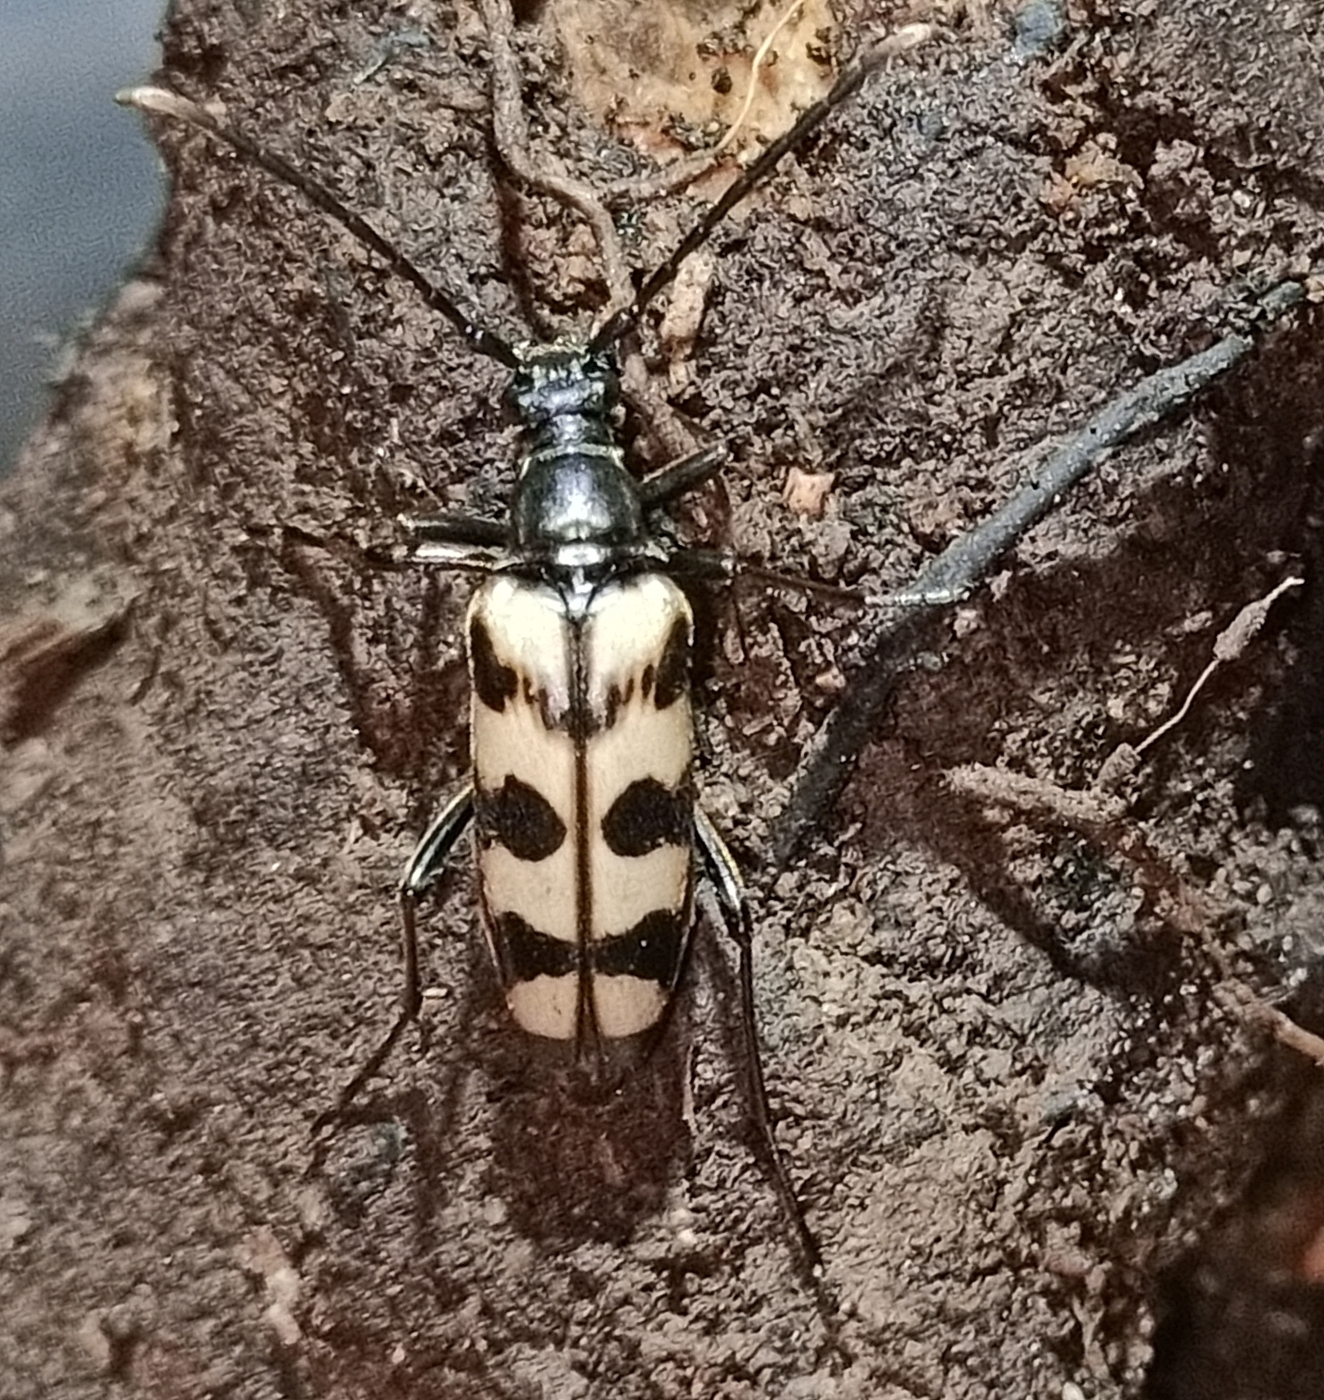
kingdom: Animalia
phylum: Arthropoda
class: Insecta
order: Coleoptera
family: Cerambycidae
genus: Leptura
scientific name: Leptura quadrifasciata
